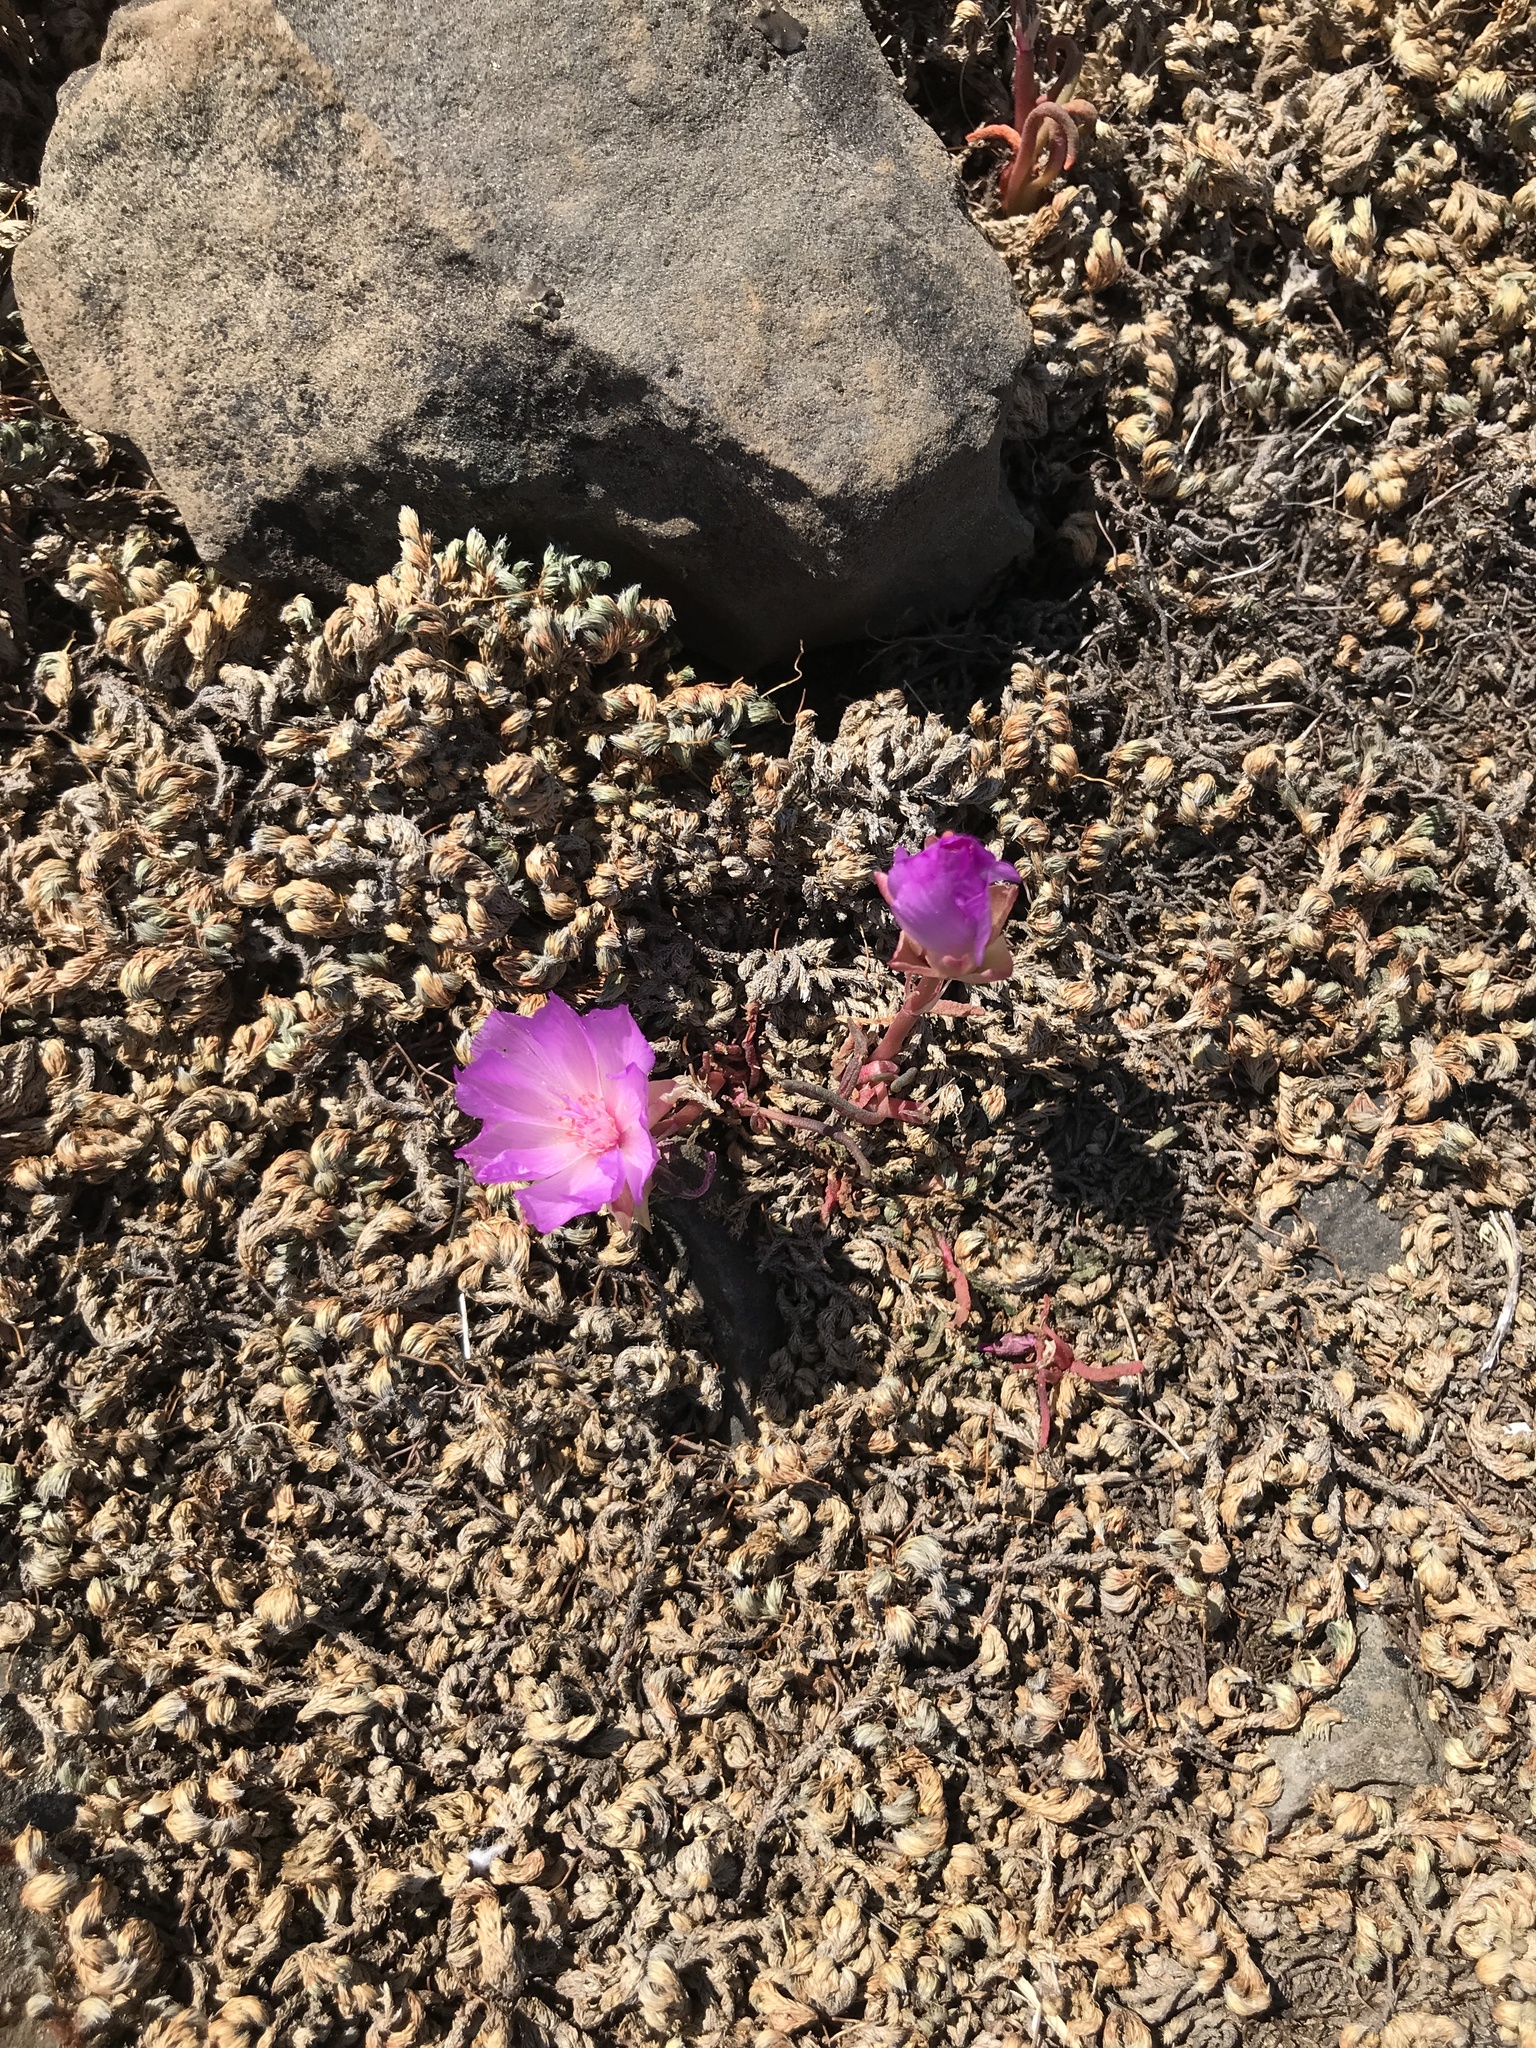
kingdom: Plantae
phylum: Tracheophyta
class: Magnoliopsida
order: Caryophyllales
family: Montiaceae
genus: Lewisia
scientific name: Lewisia rediviva
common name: Bitter-root
